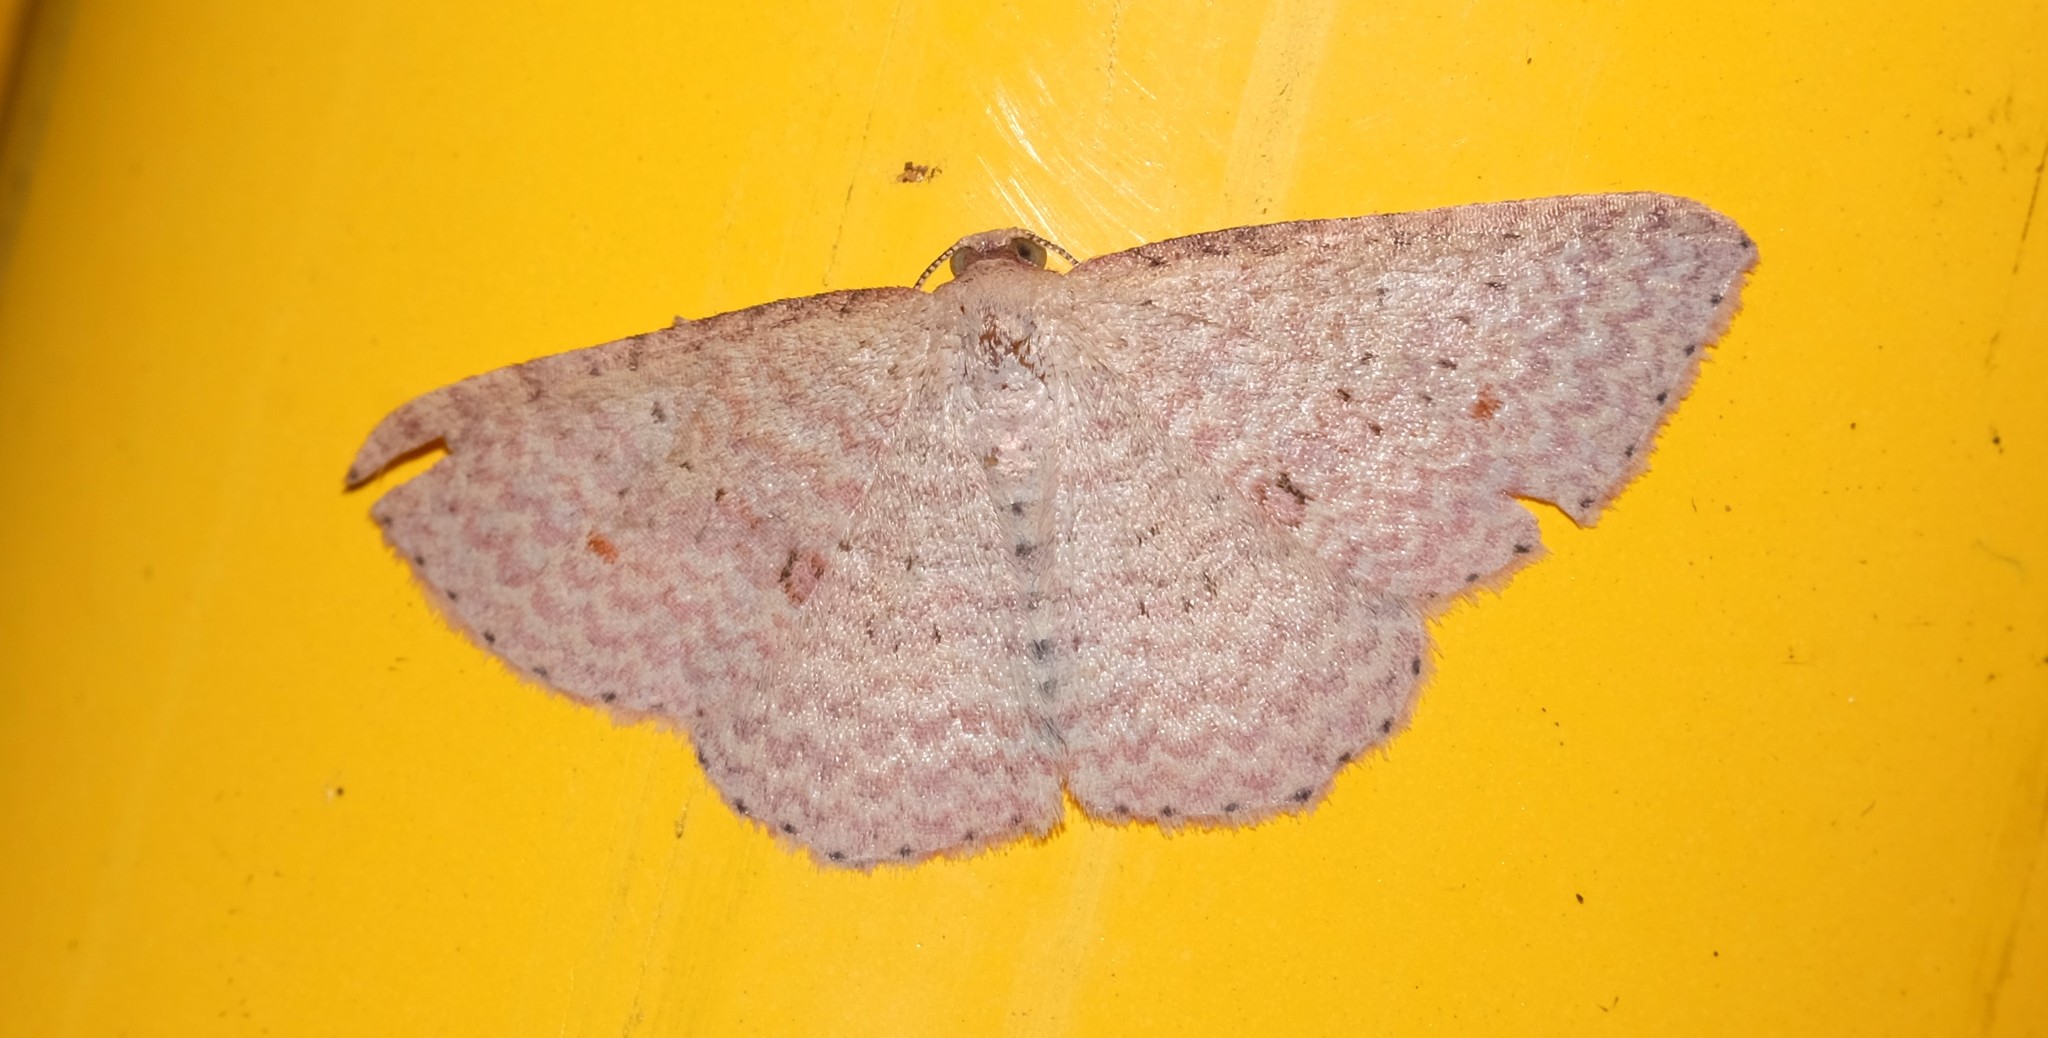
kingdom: Animalia
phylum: Arthropoda
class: Insecta
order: Lepidoptera
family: Geometridae
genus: Epicyme
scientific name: Epicyme rubropunctaria
